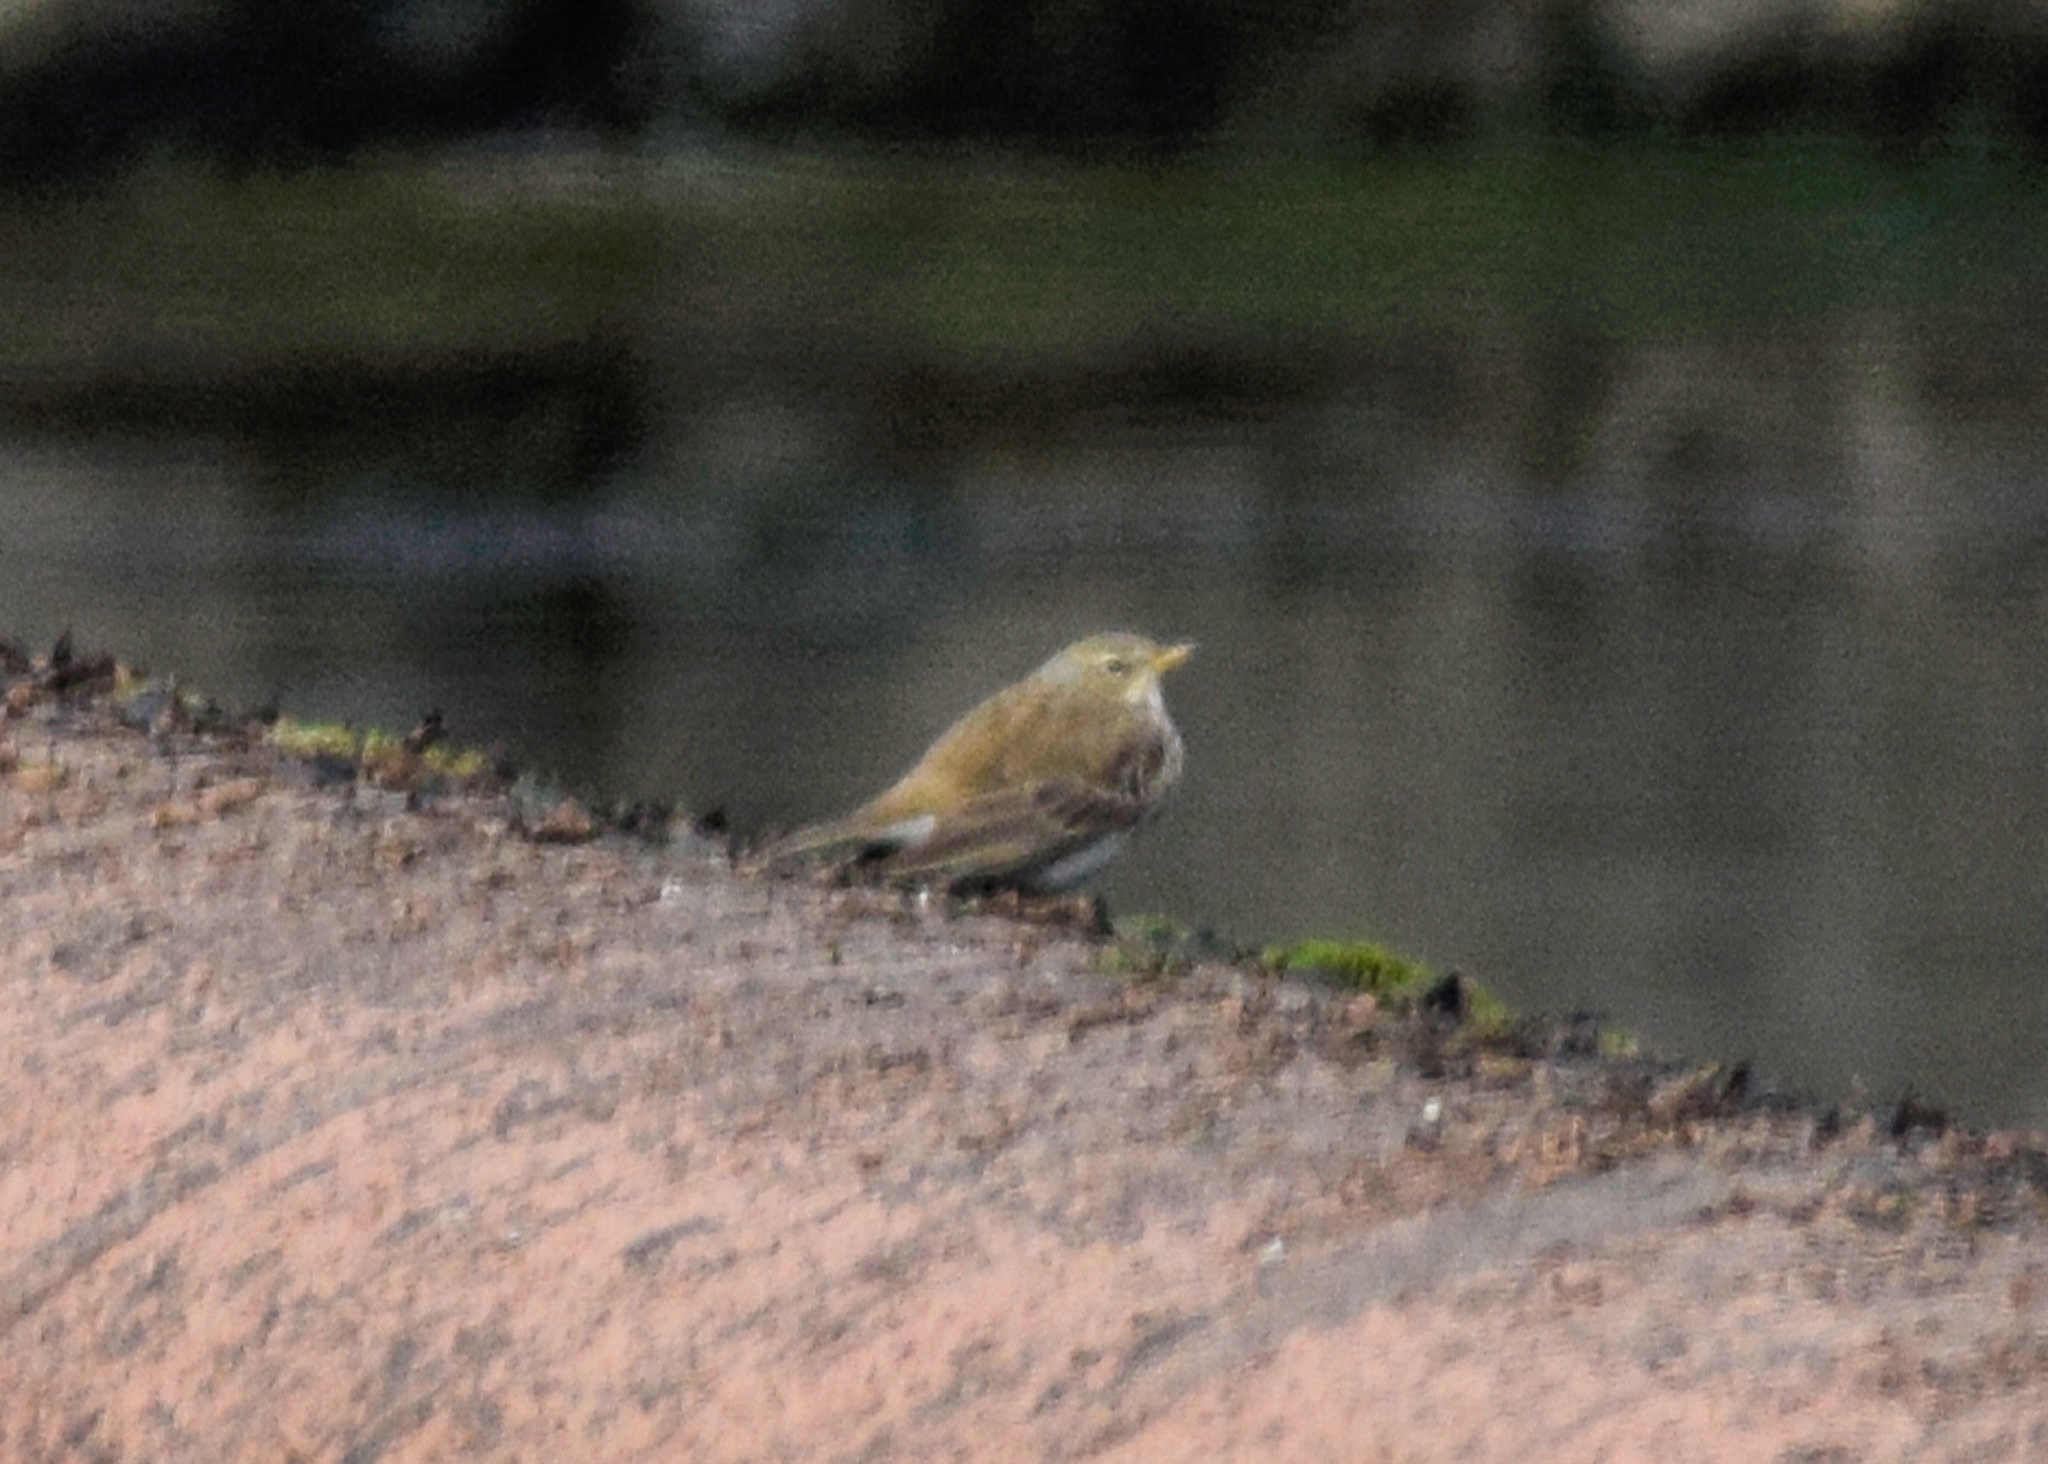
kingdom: Animalia
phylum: Chordata
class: Aves
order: Passeriformes
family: Motacillidae
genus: Anthus
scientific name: Anthus spinoletta
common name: Water pipit
